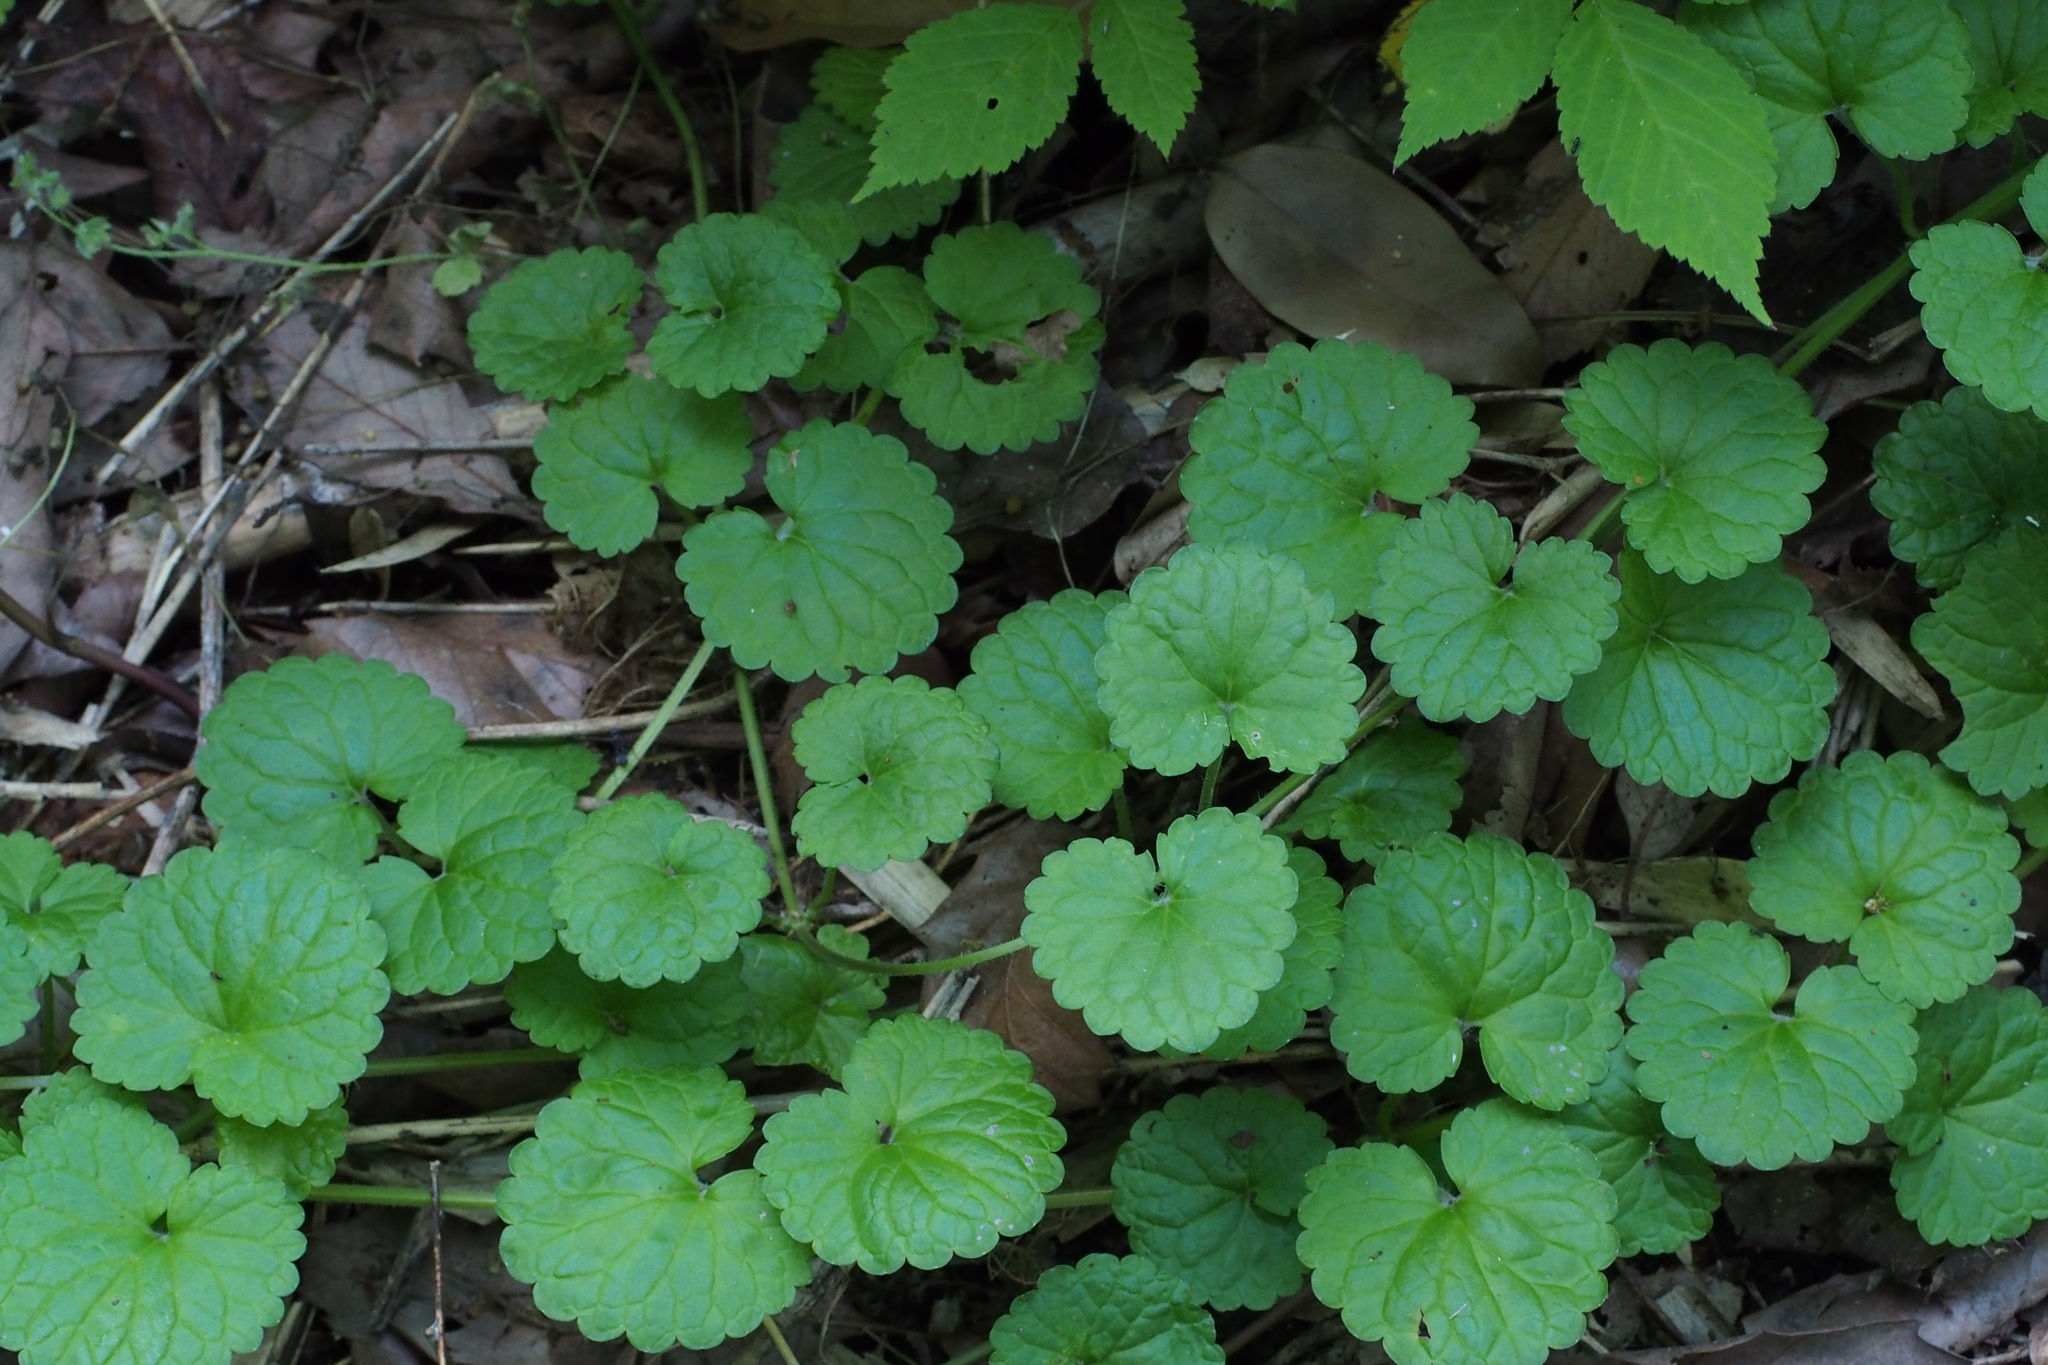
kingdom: Plantae
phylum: Tracheophyta
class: Magnoliopsida
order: Lamiales
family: Lamiaceae
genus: Glechoma
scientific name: Glechoma grandis
